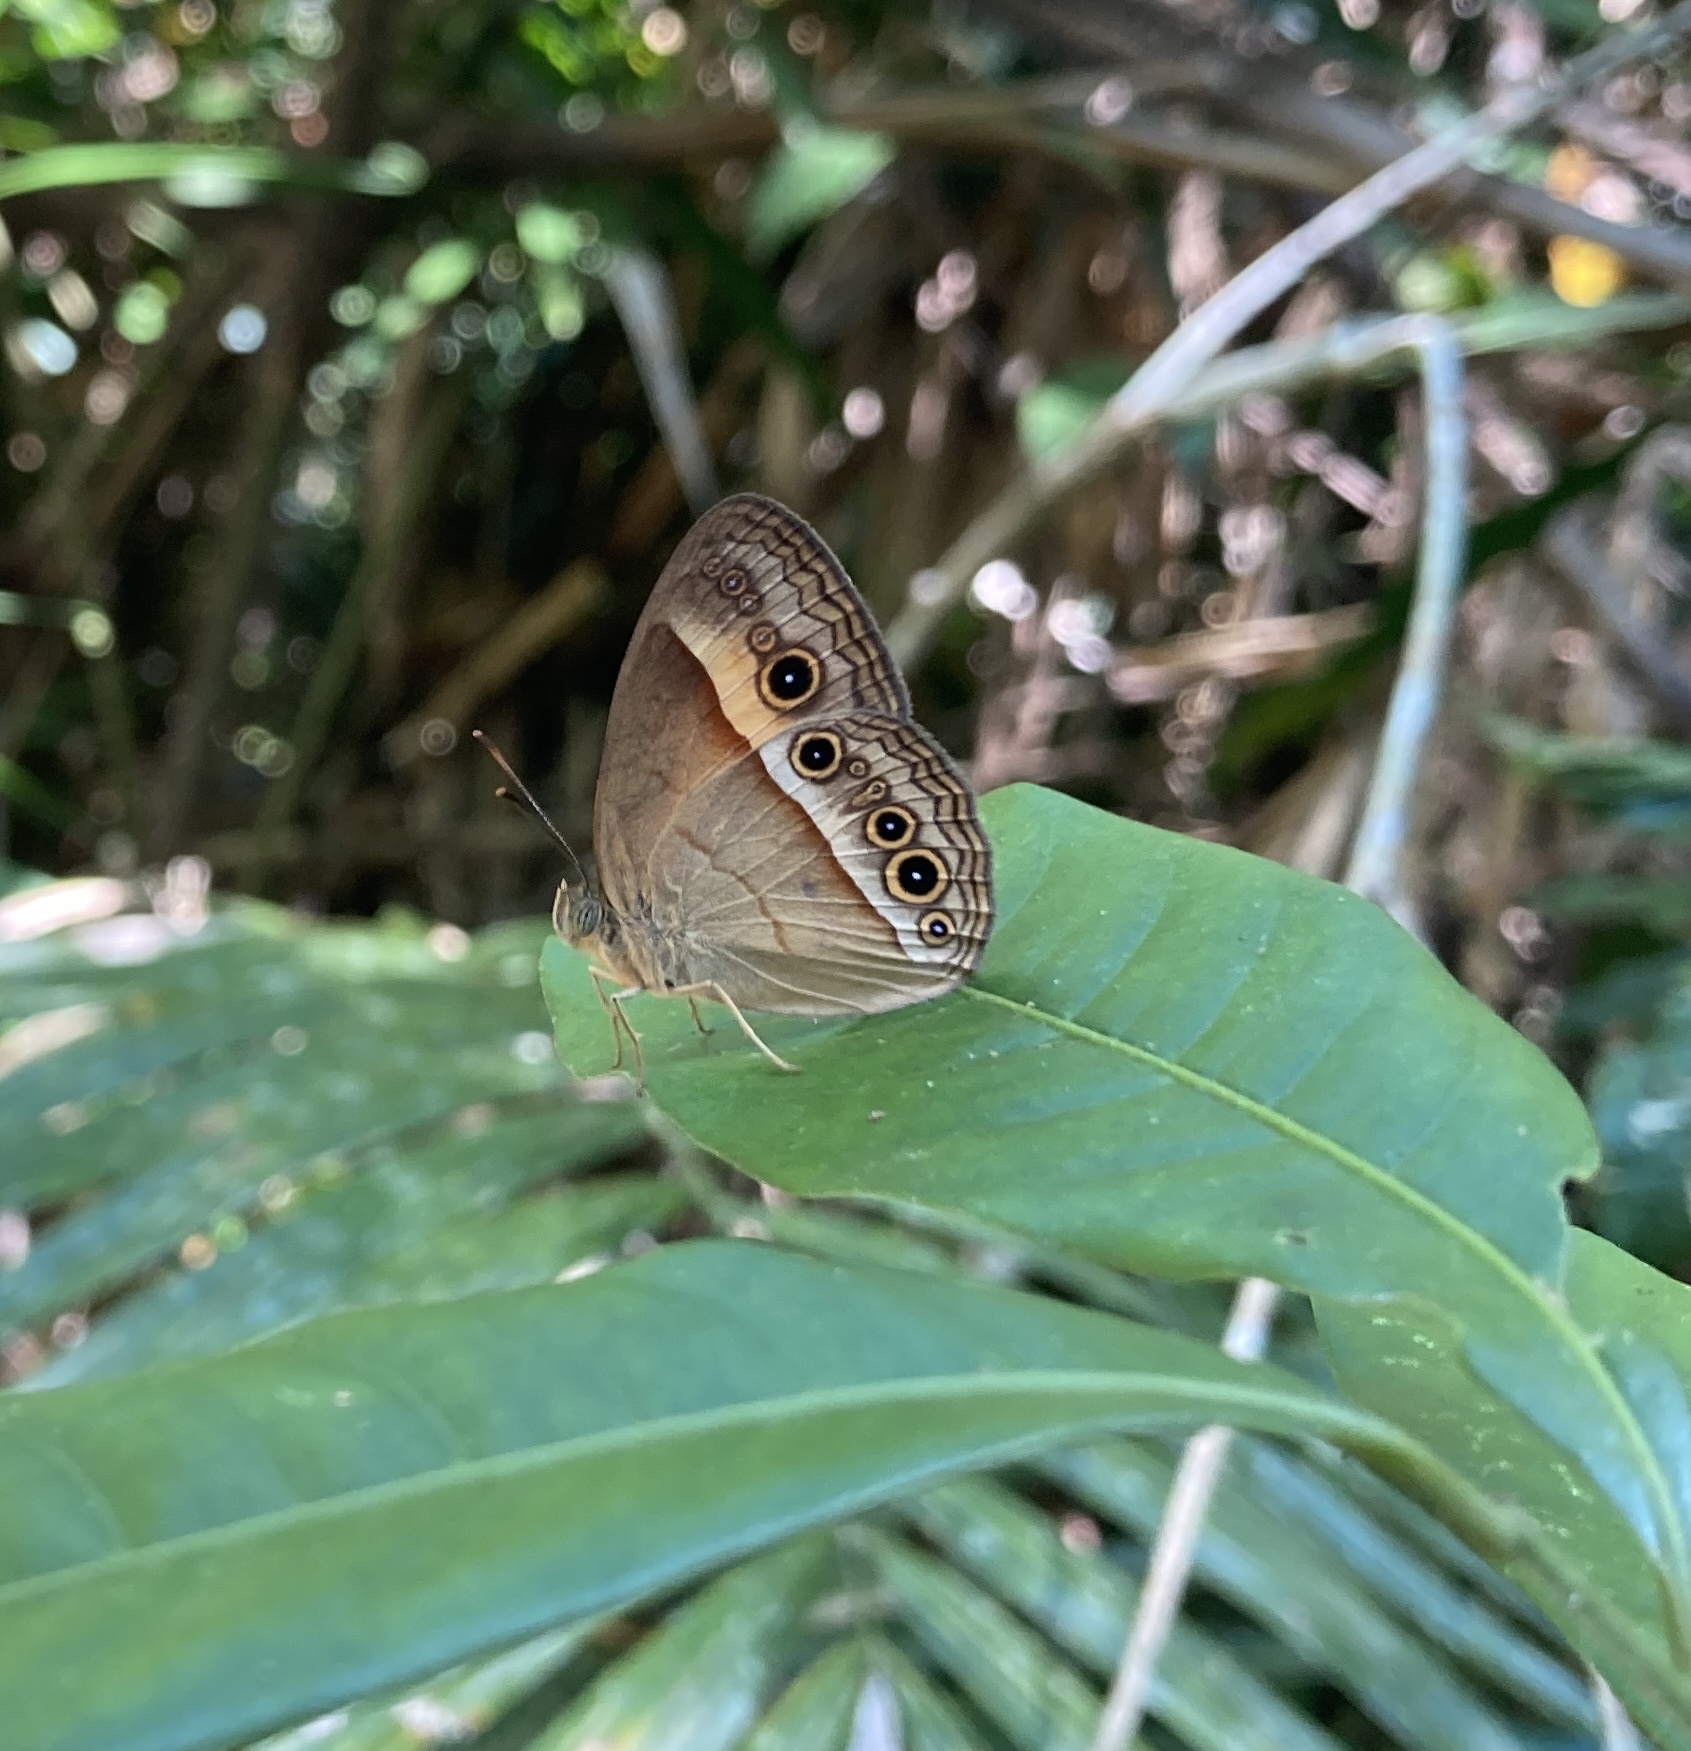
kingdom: Animalia
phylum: Arthropoda
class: Insecta
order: Lepidoptera
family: Nymphalidae
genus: Mycalesis
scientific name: Mycalesis terminus
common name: Orange bushbrown
